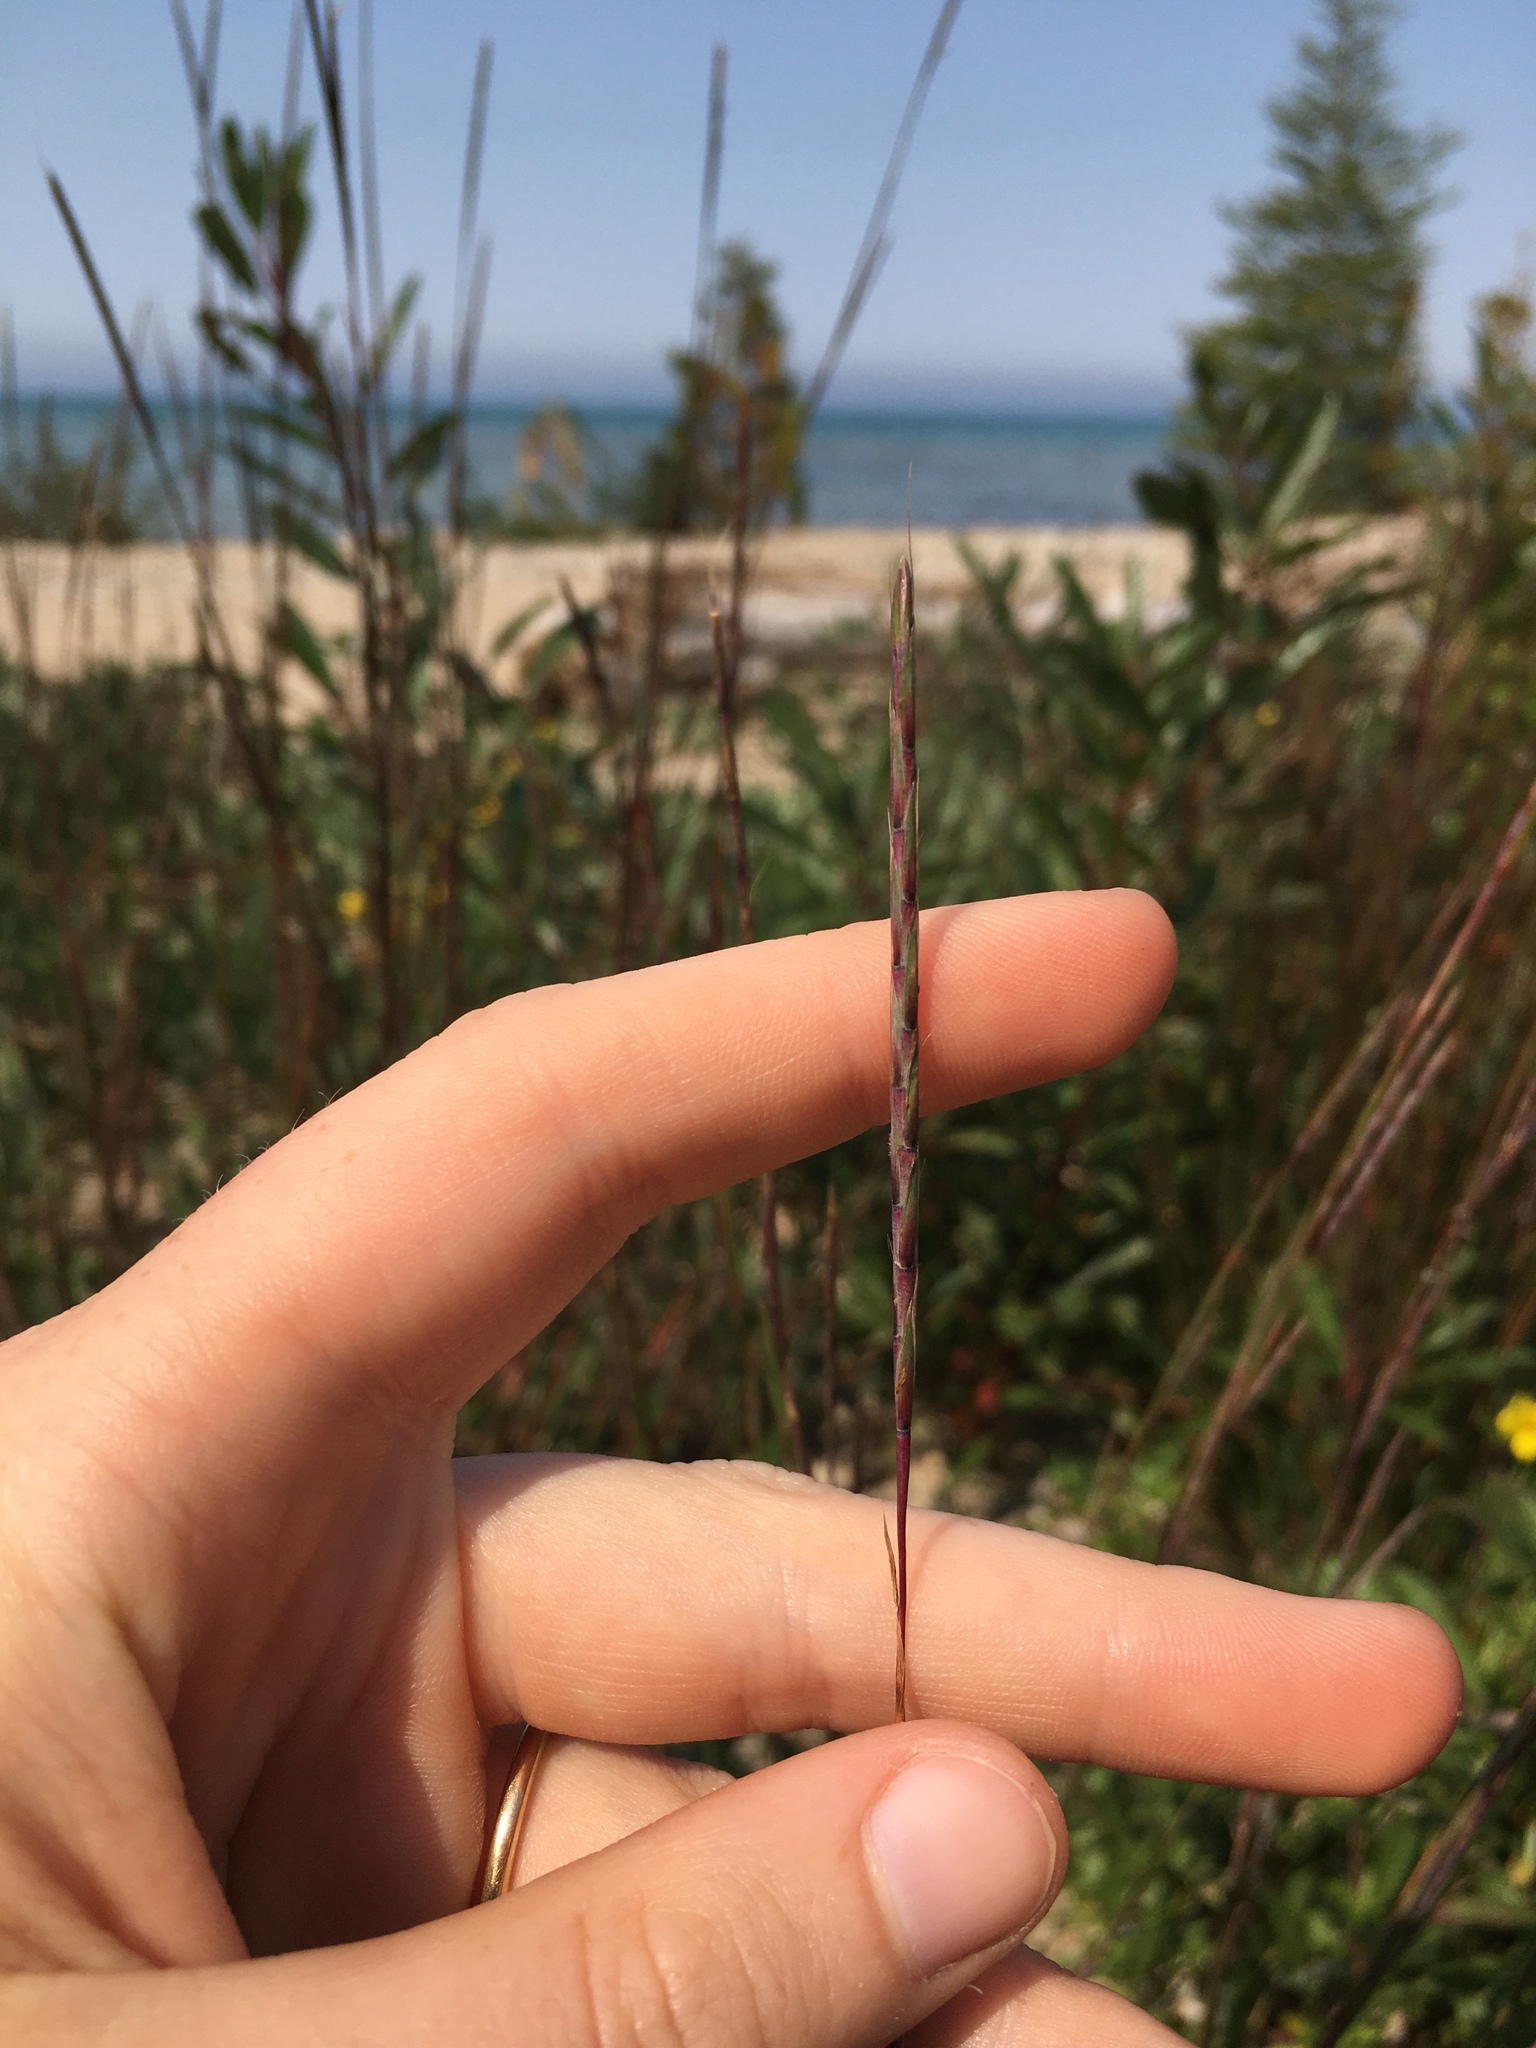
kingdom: Plantae
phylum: Tracheophyta
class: Liliopsida
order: Poales
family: Poaceae
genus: Andropogon
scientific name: Andropogon gerardi
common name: Big bluestem
